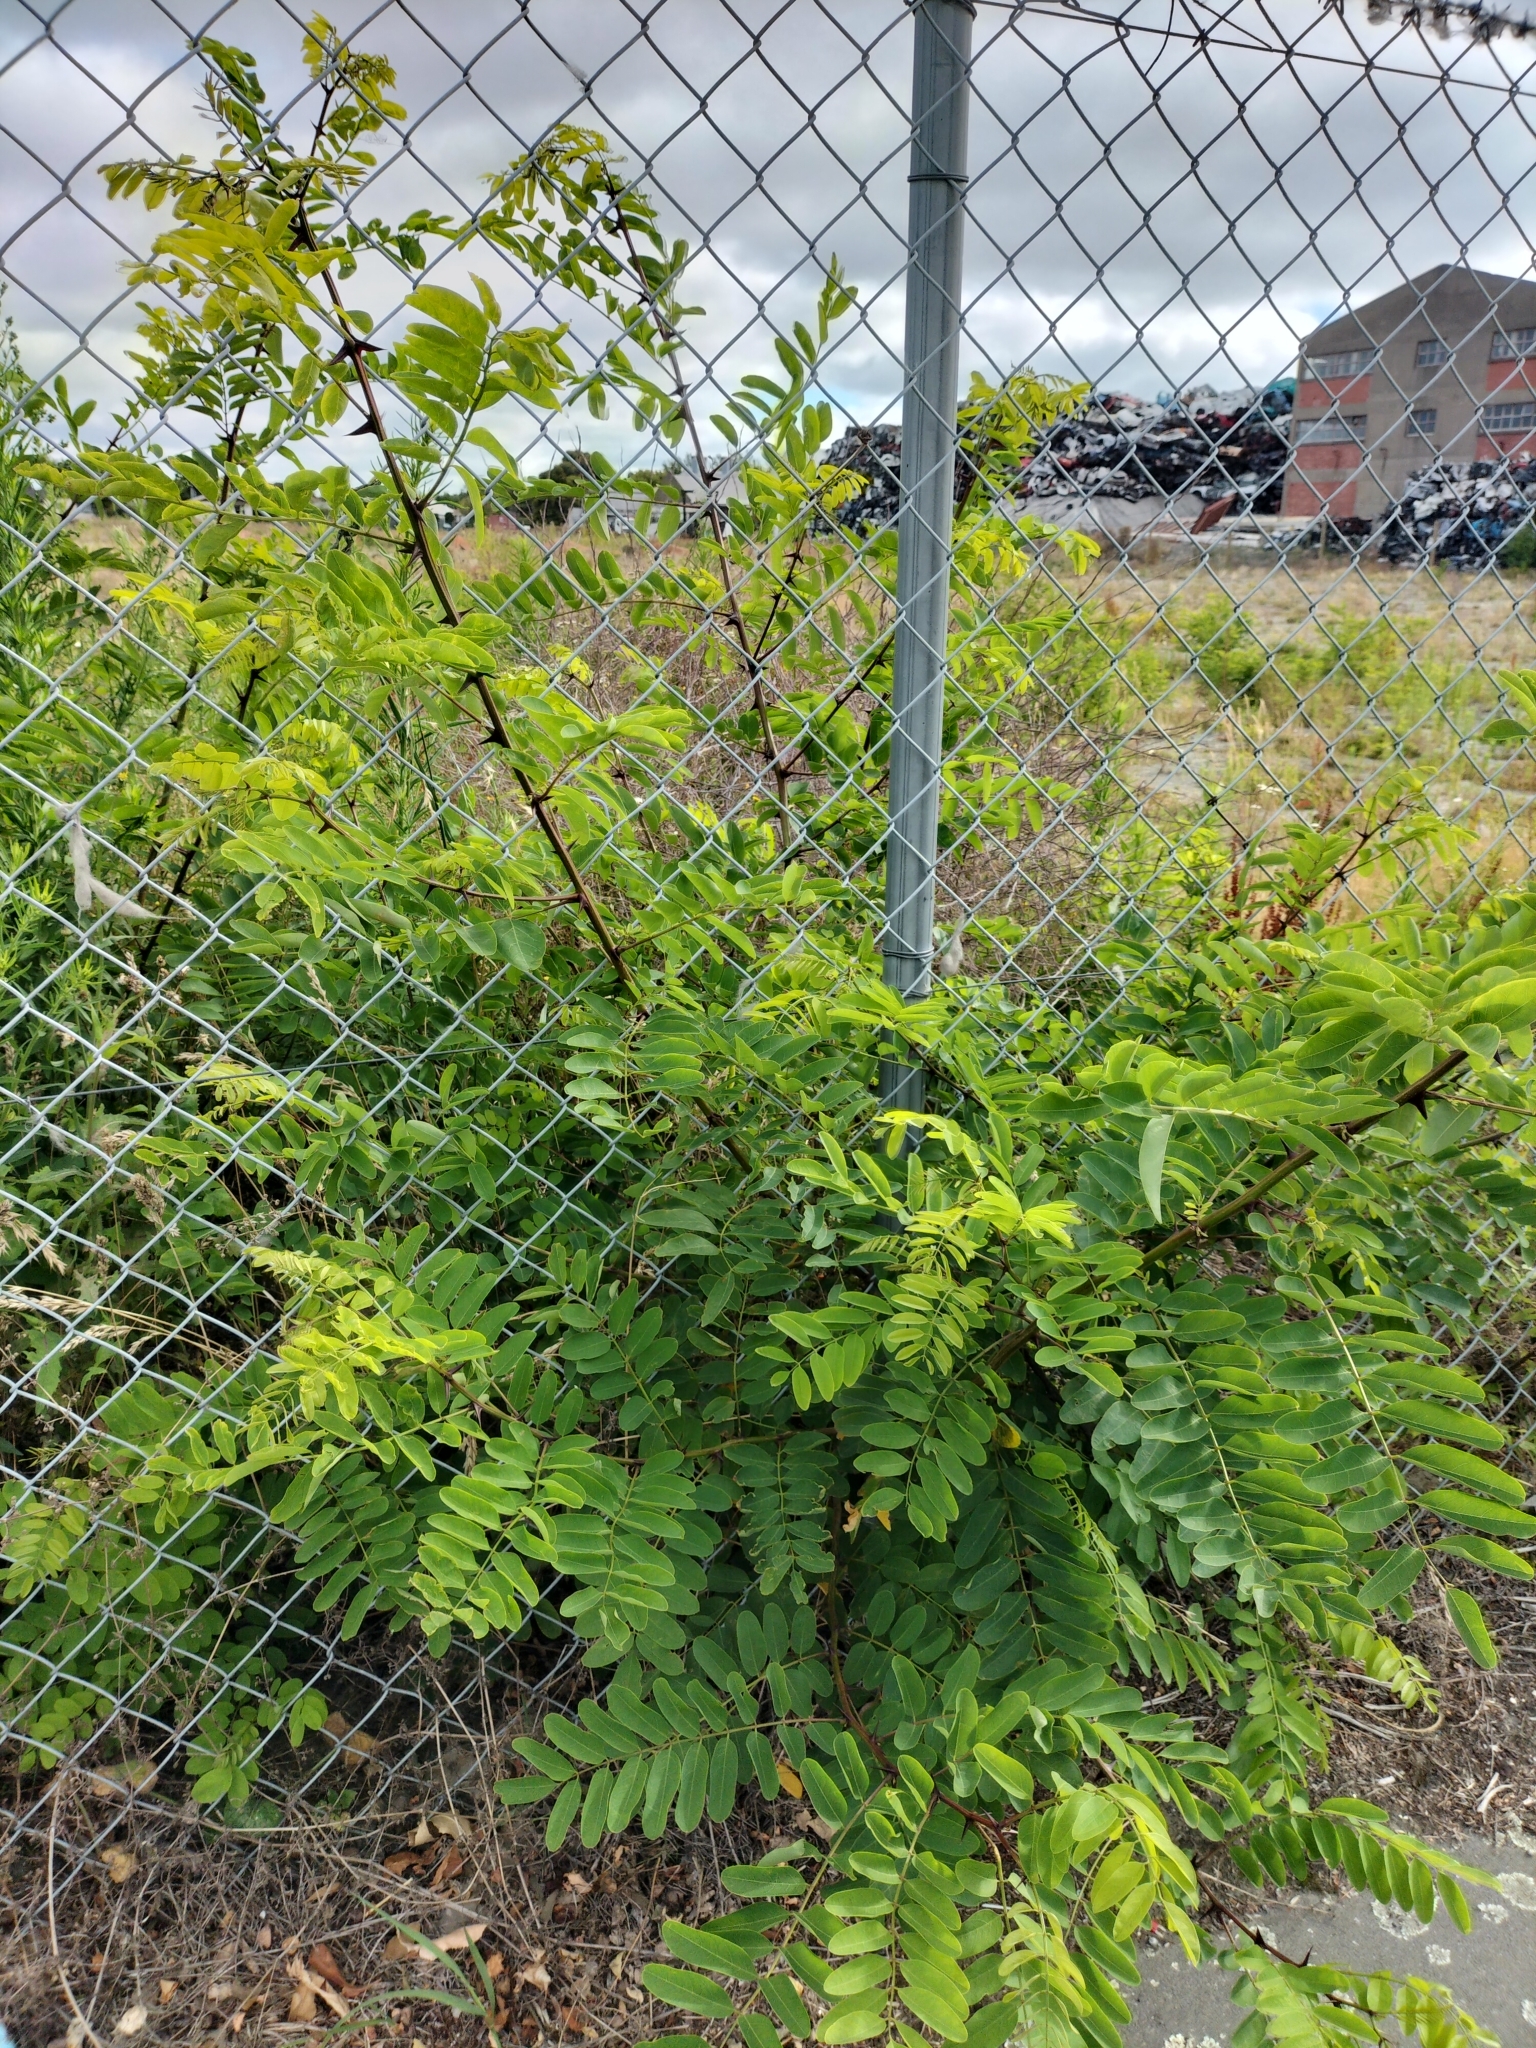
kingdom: Plantae
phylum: Tracheophyta
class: Magnoliopsida
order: Fabales
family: Fabaceae
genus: Robinia
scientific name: Robinia pseudoacacia
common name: Black locust
